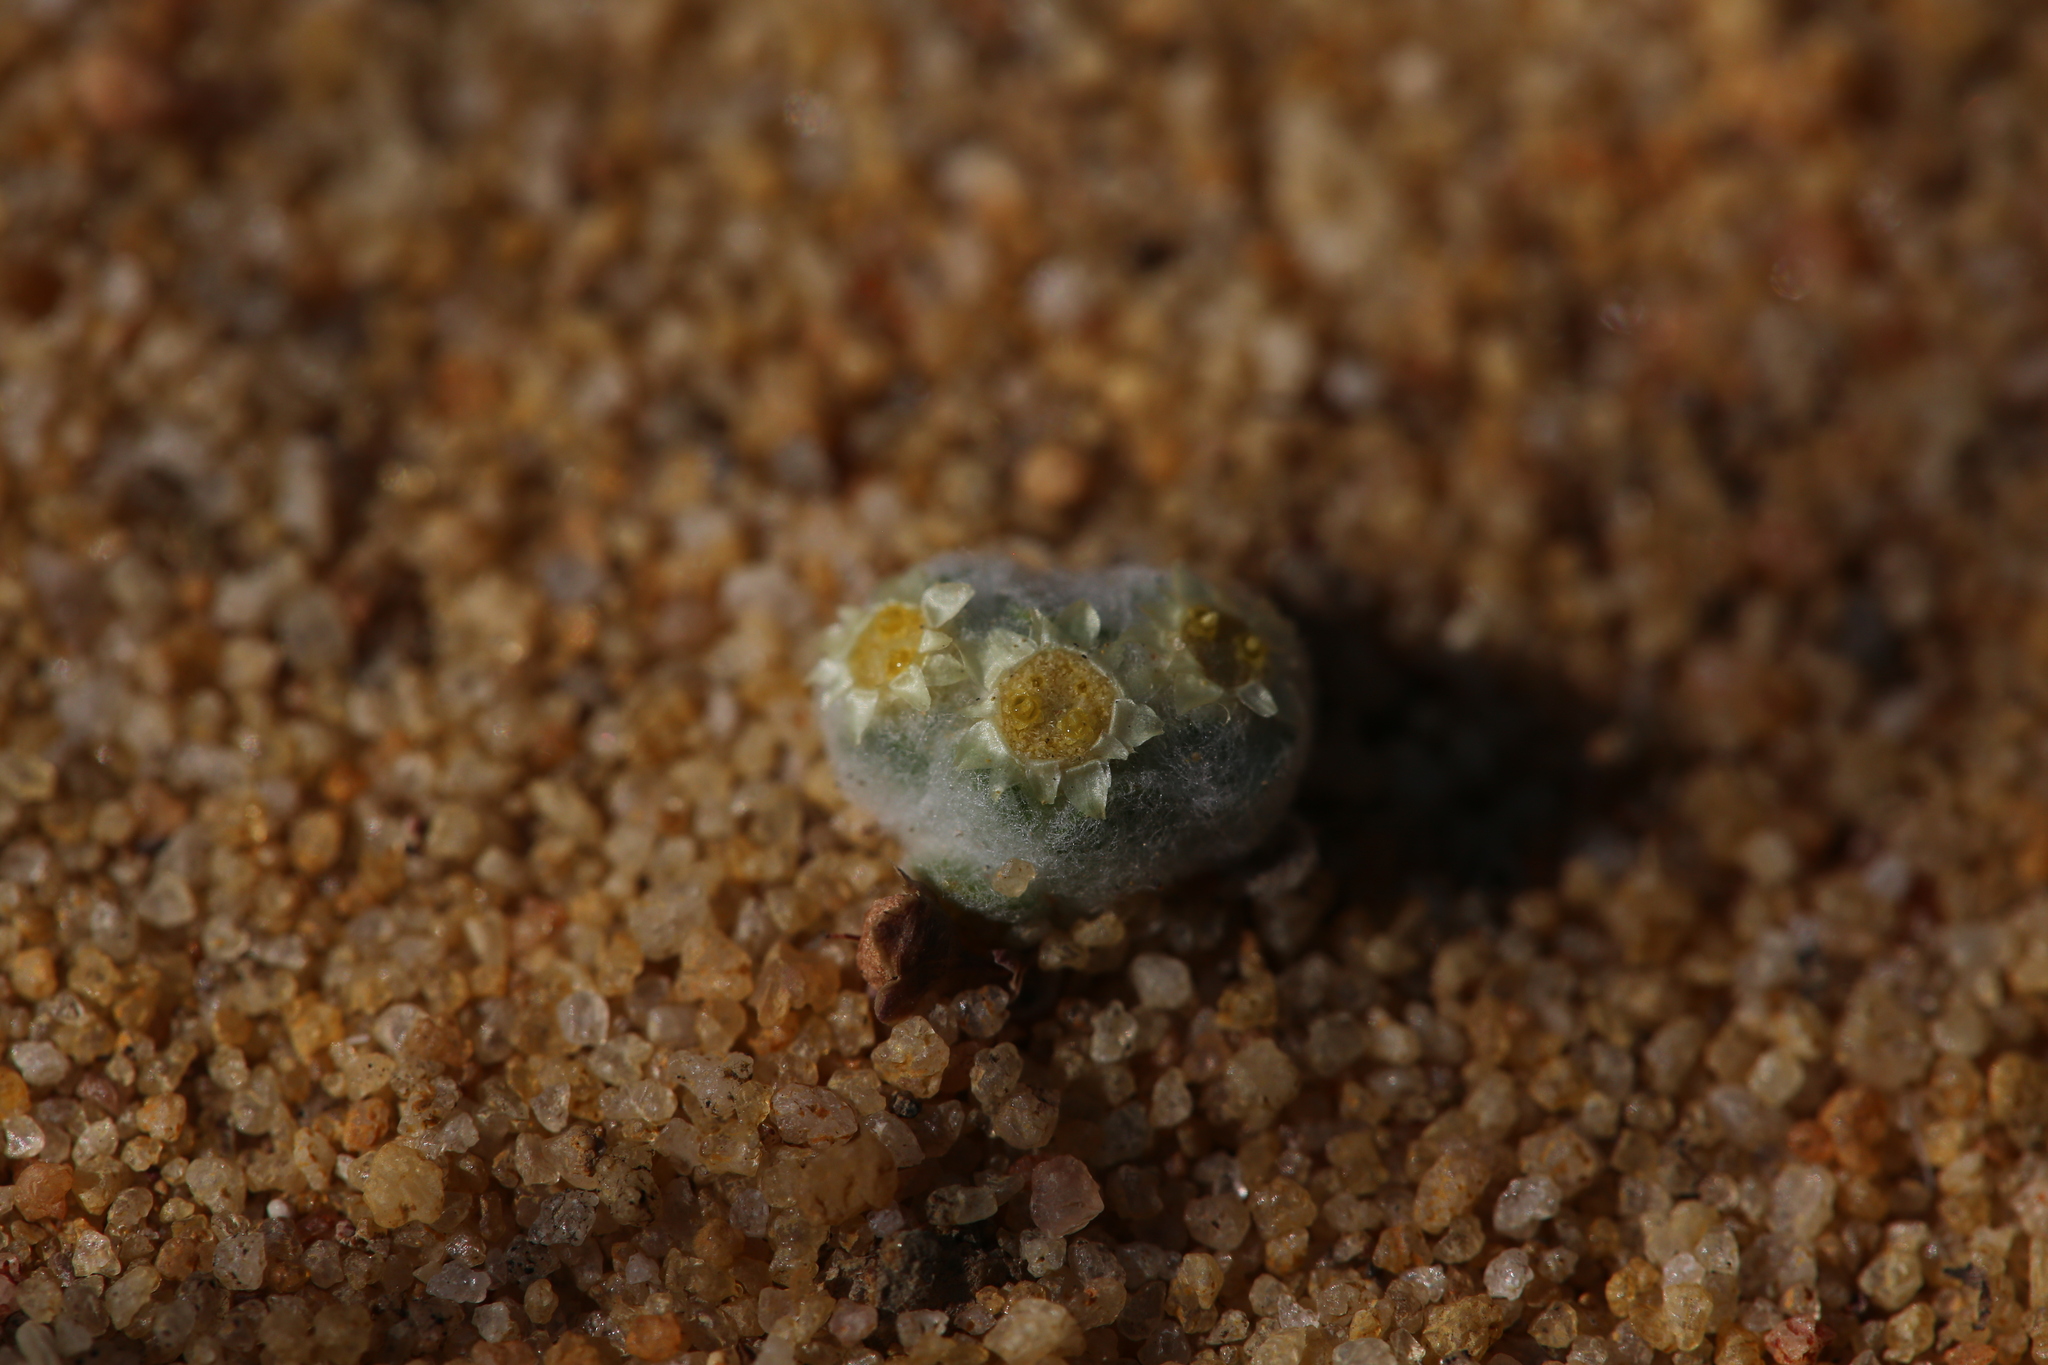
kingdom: Plantae
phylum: Tracheophyta
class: Magnoliopsida
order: Asterales
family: Asteraceae
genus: Actinobole
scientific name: Actinobole uliginosum
